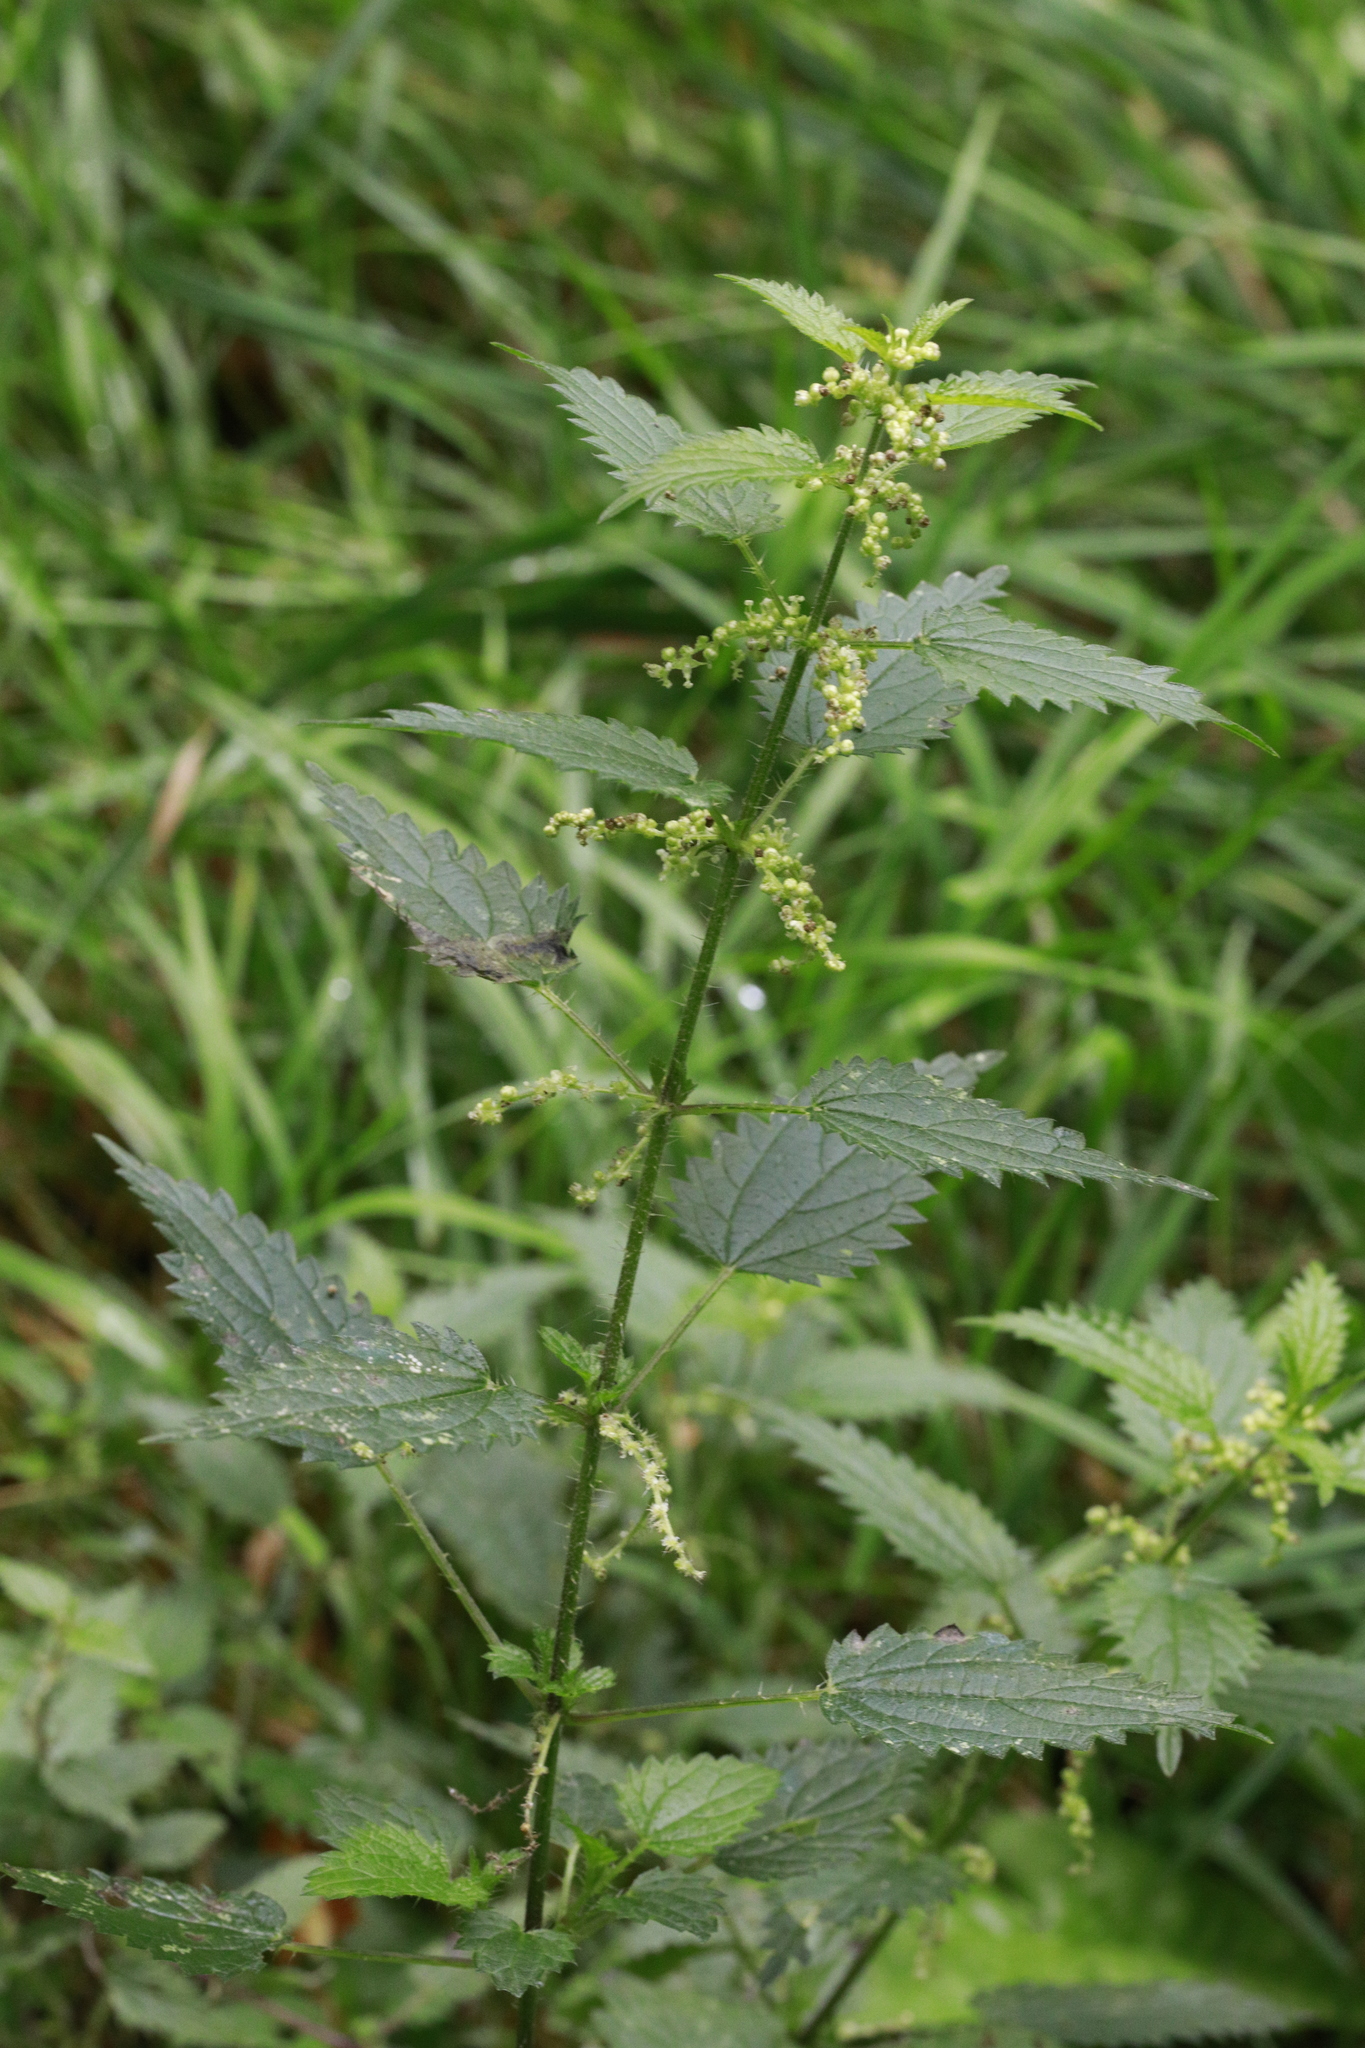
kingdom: Plantae
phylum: Tracheophyta
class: Magnoliopsida
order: Rosales
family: Urticaceae
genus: Urtica
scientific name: Urtica dioica
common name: Common nettle
